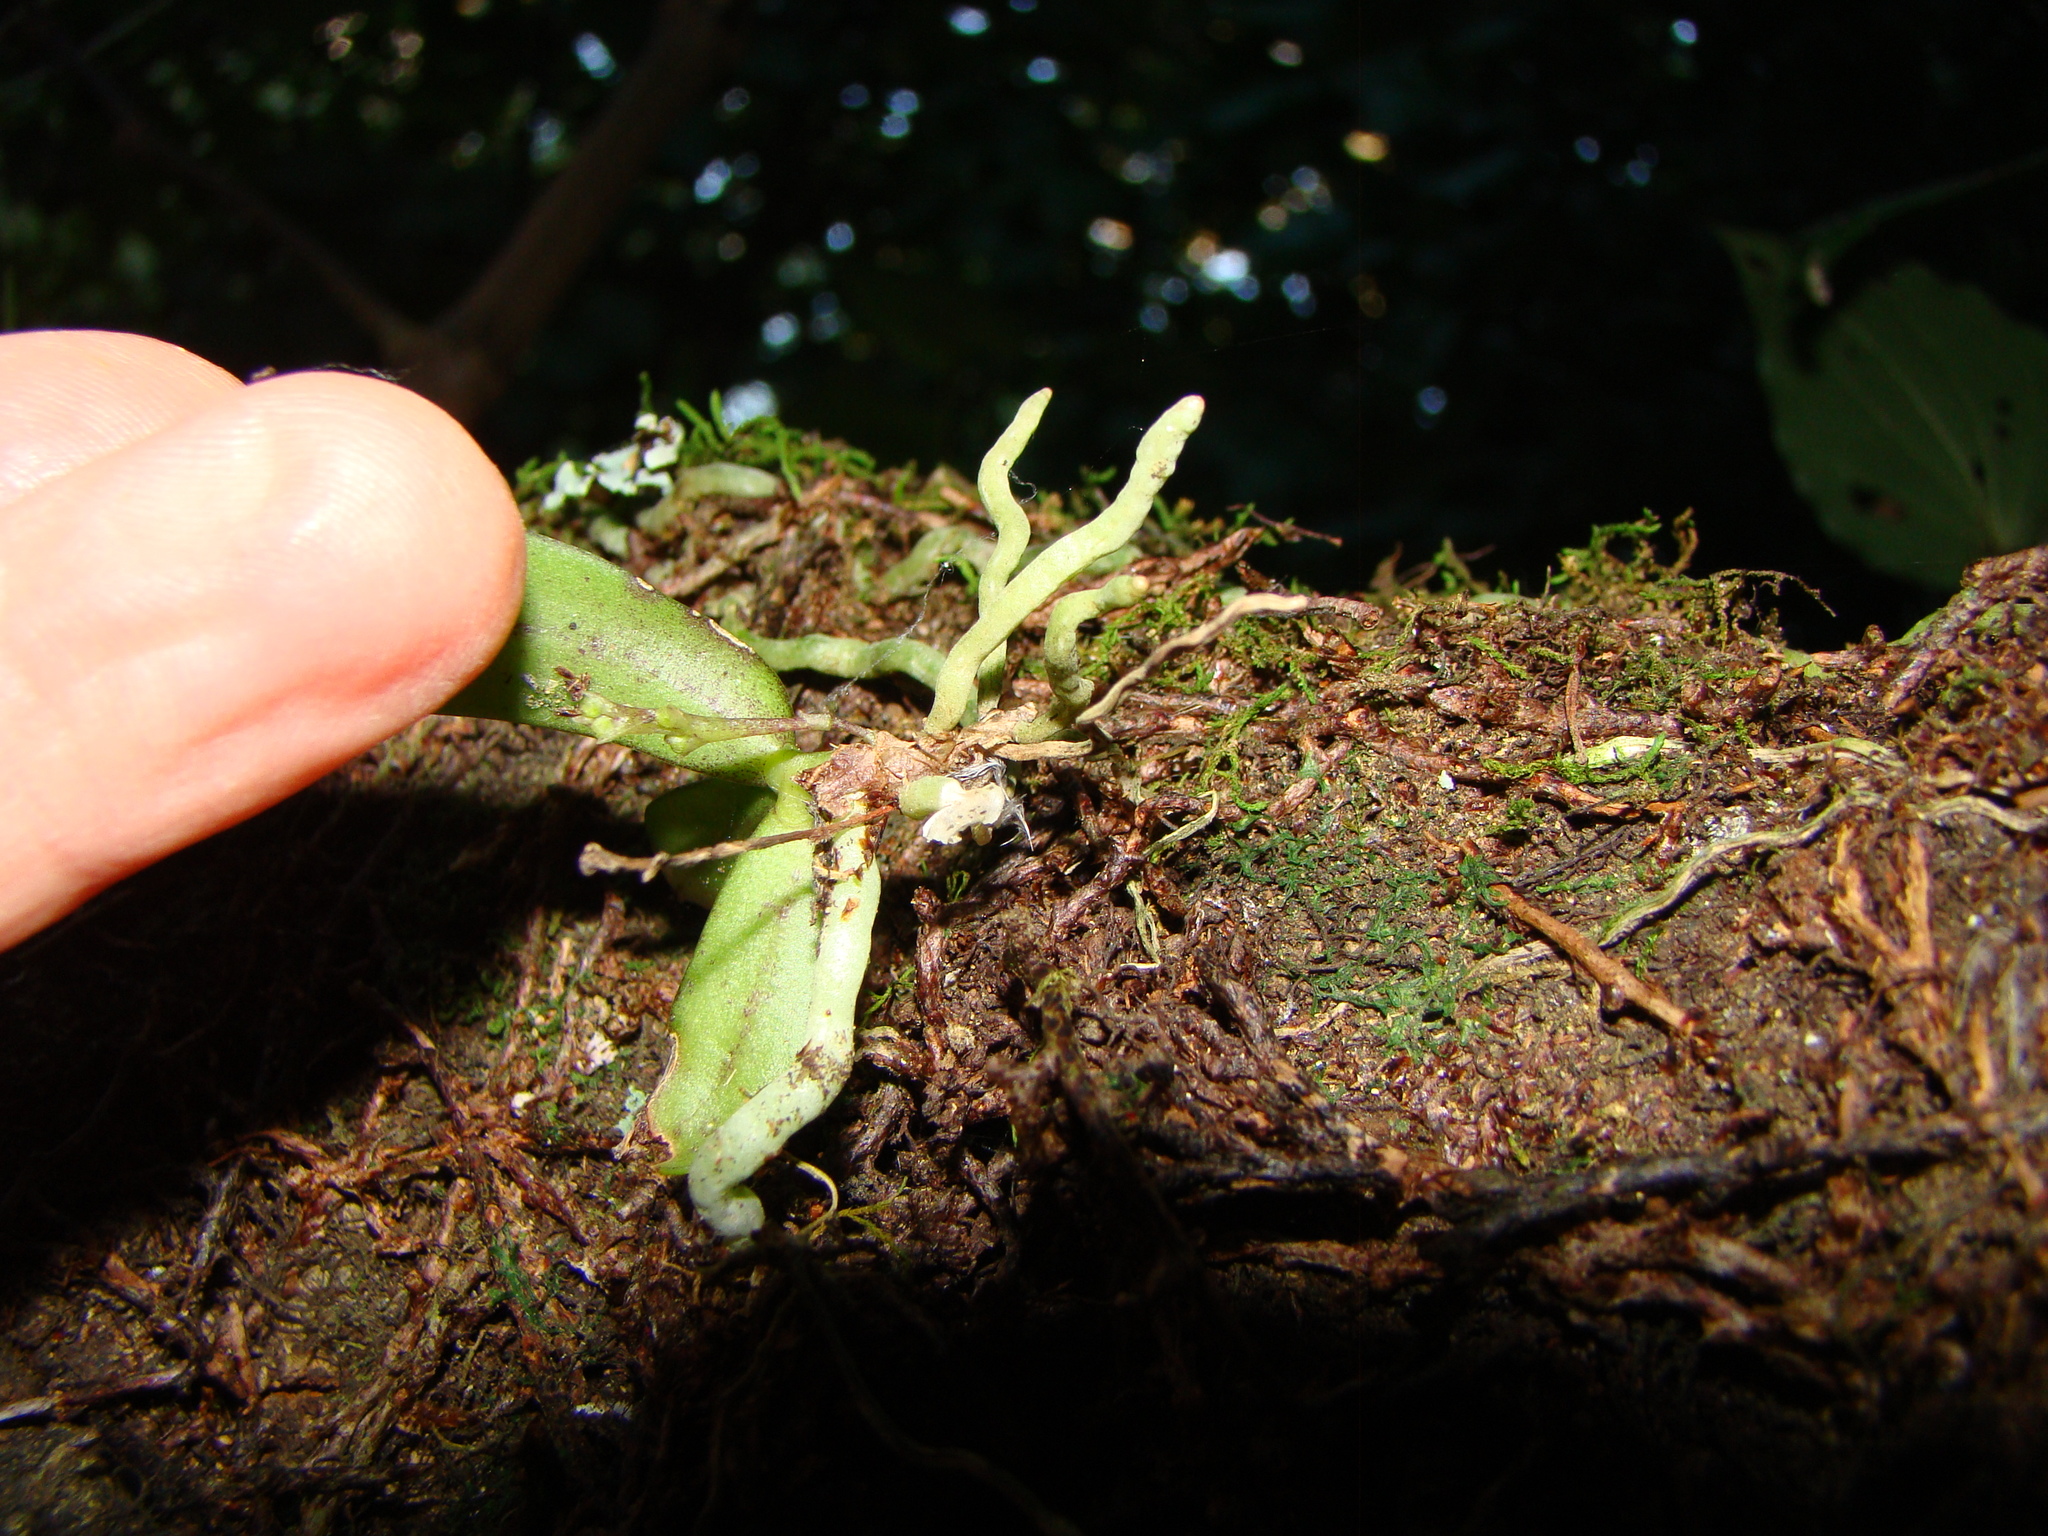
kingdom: Plantae
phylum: Tracheophyta
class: Liliopsida
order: Asparagales
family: Orchidaceae
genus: Drymoanthus
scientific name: Drymoanthus adversus
